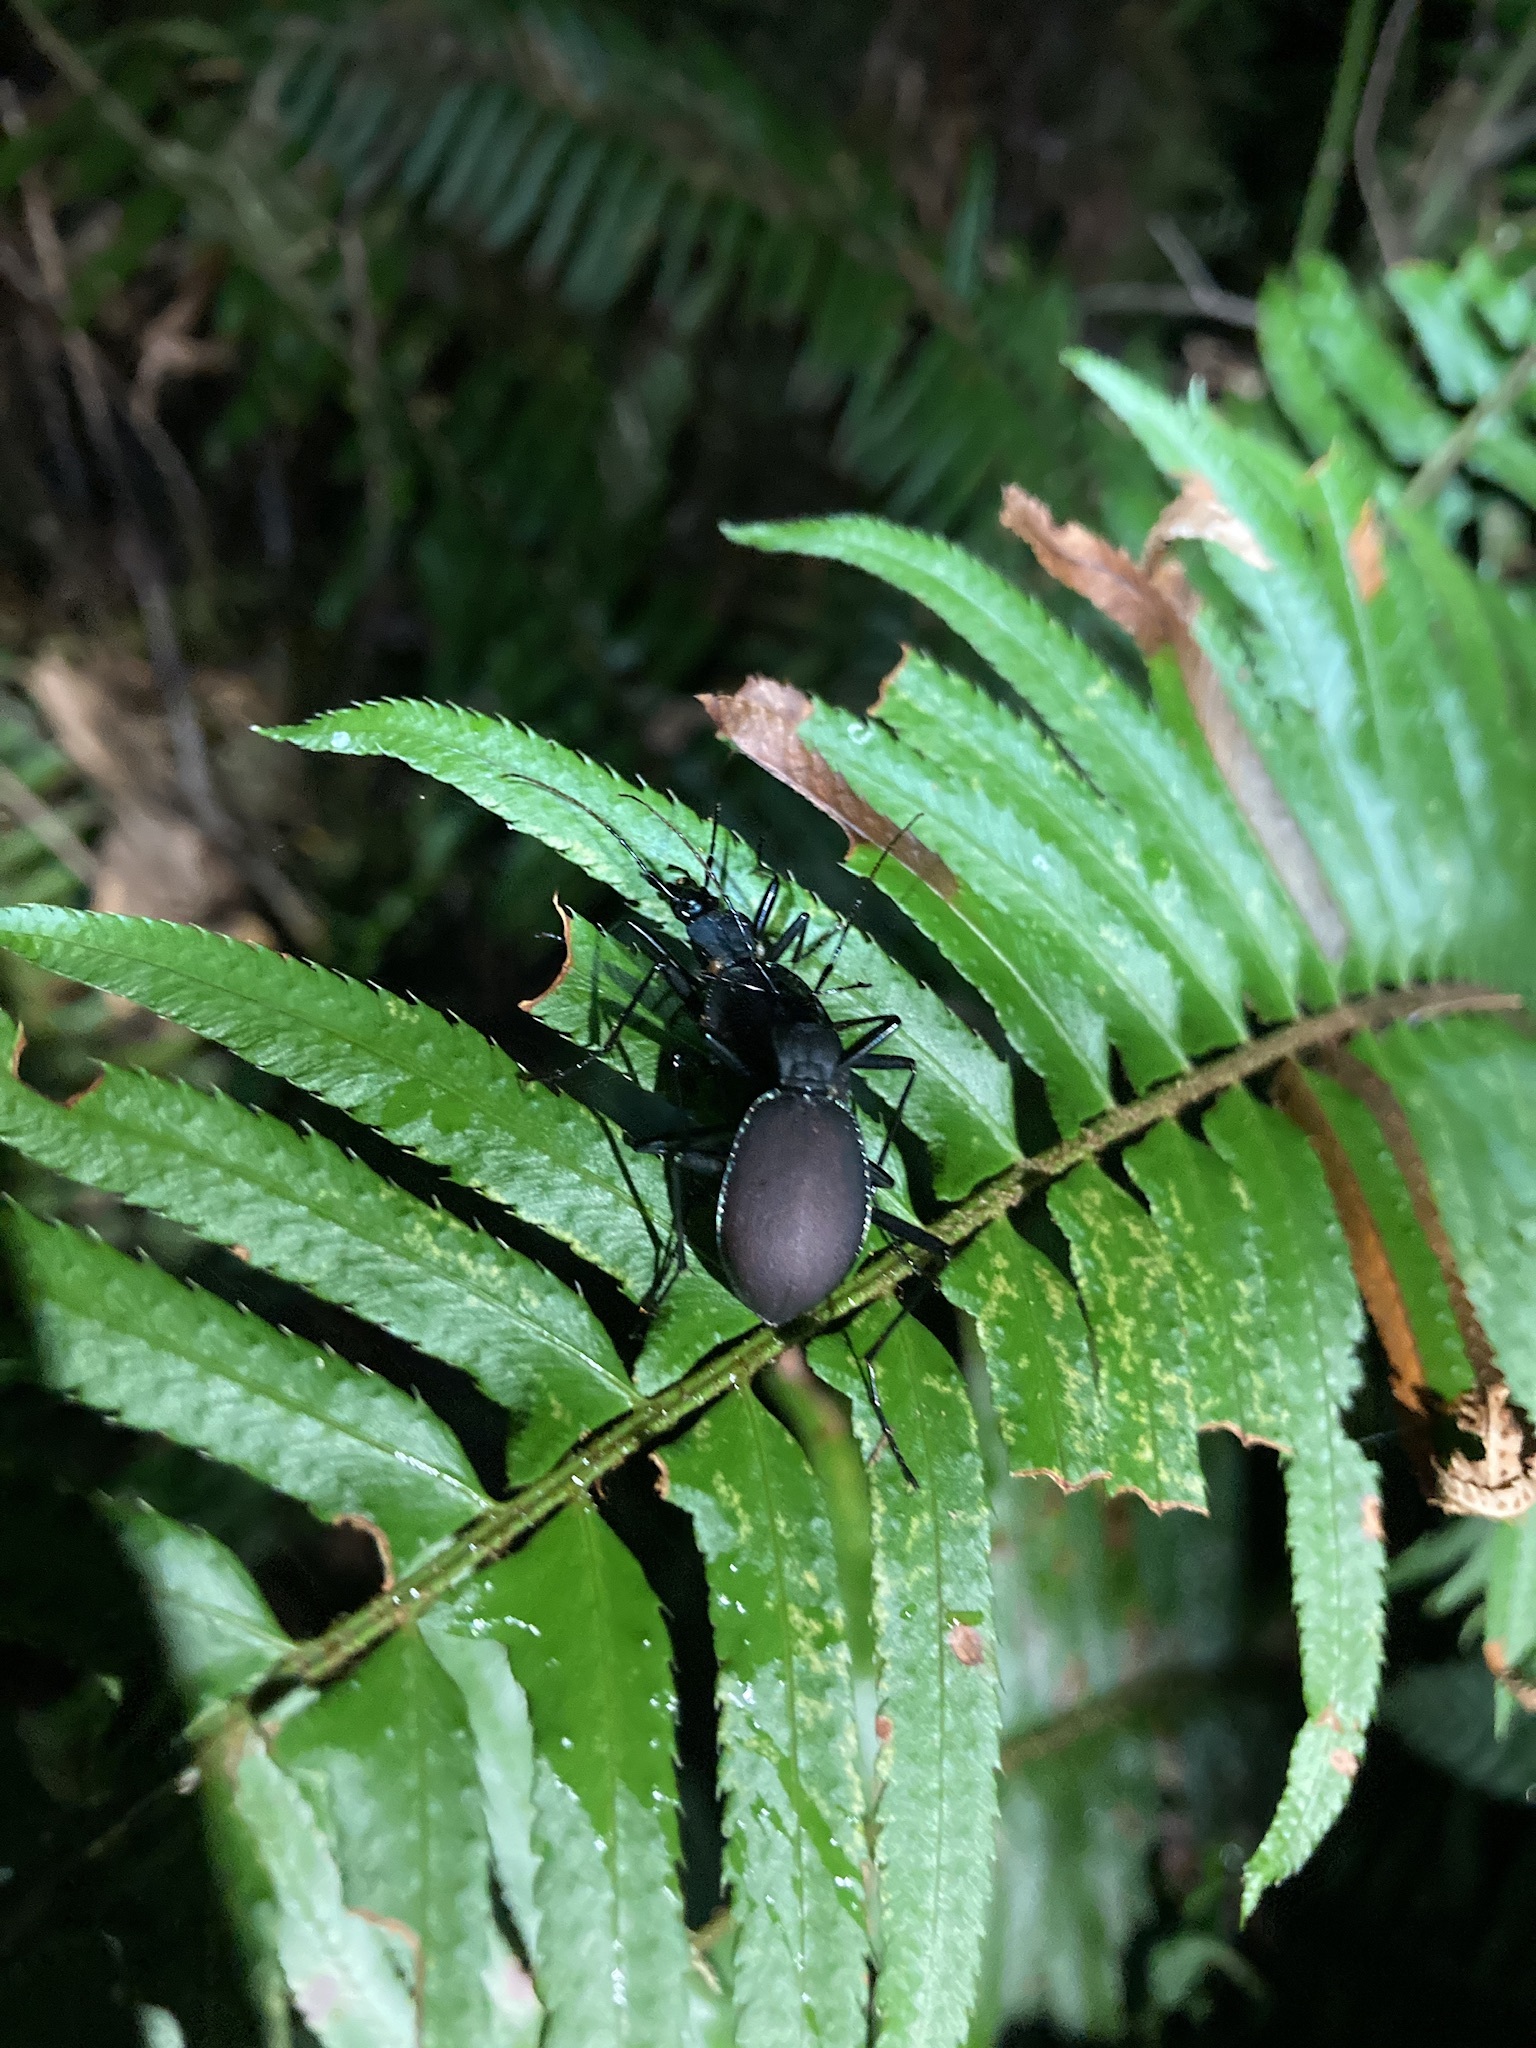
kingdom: Animalia
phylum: Arthropoda
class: Insecta
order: Coleoptera
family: Carabidae
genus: Scaphinotus
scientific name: Scaphinotus angusticollis
